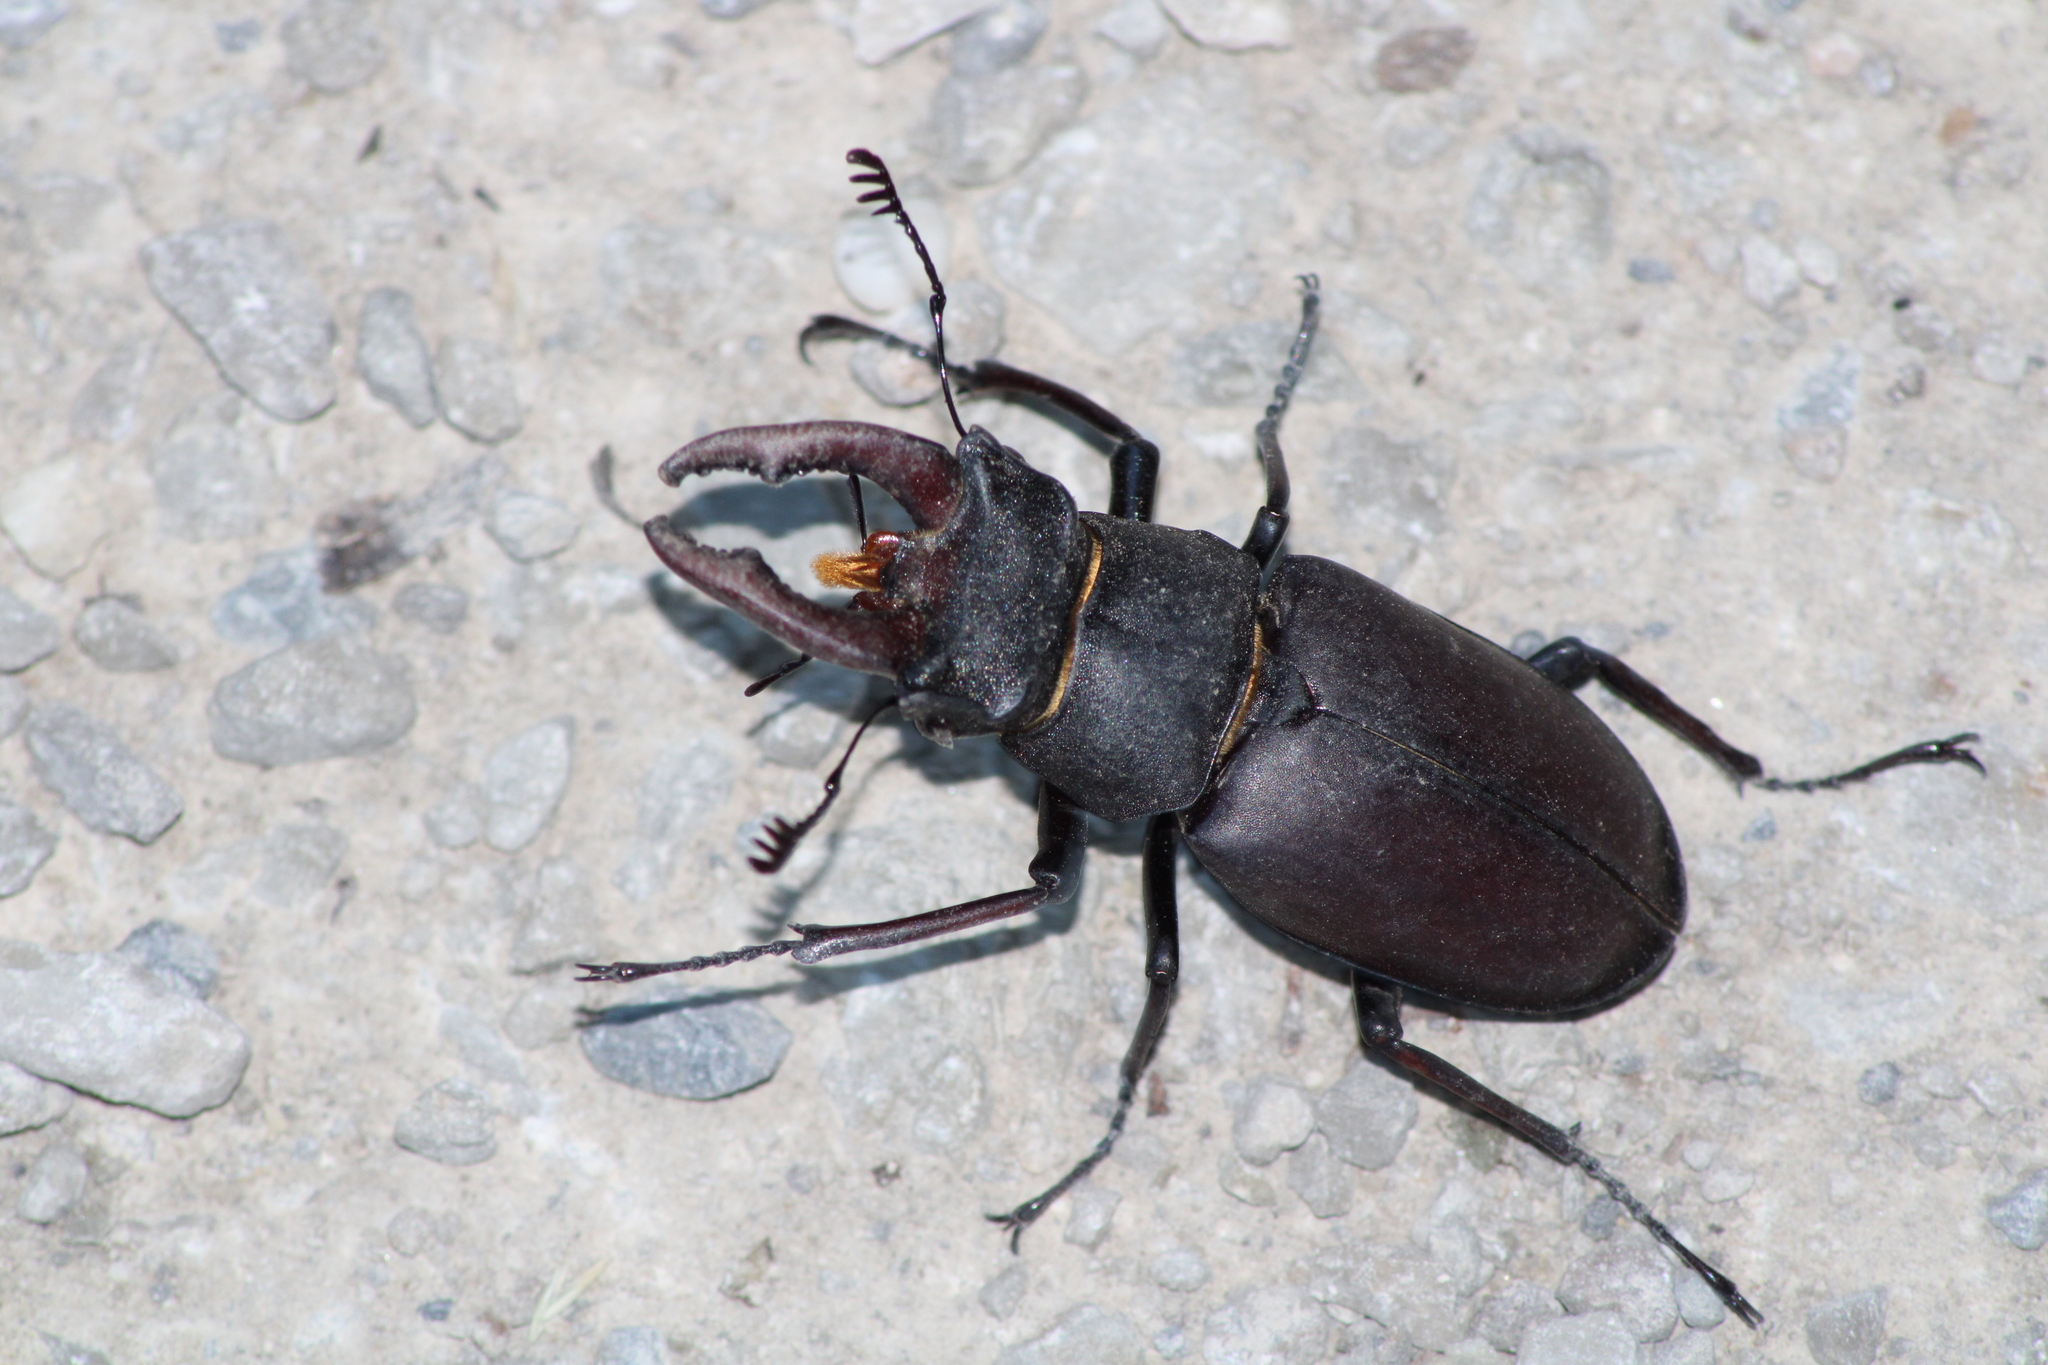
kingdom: Animalia
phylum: Arthropoda
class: Insecta
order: Coleoptera
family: Lucanidae
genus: Lucanus
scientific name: Lucanus cervus
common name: Stag beetle
